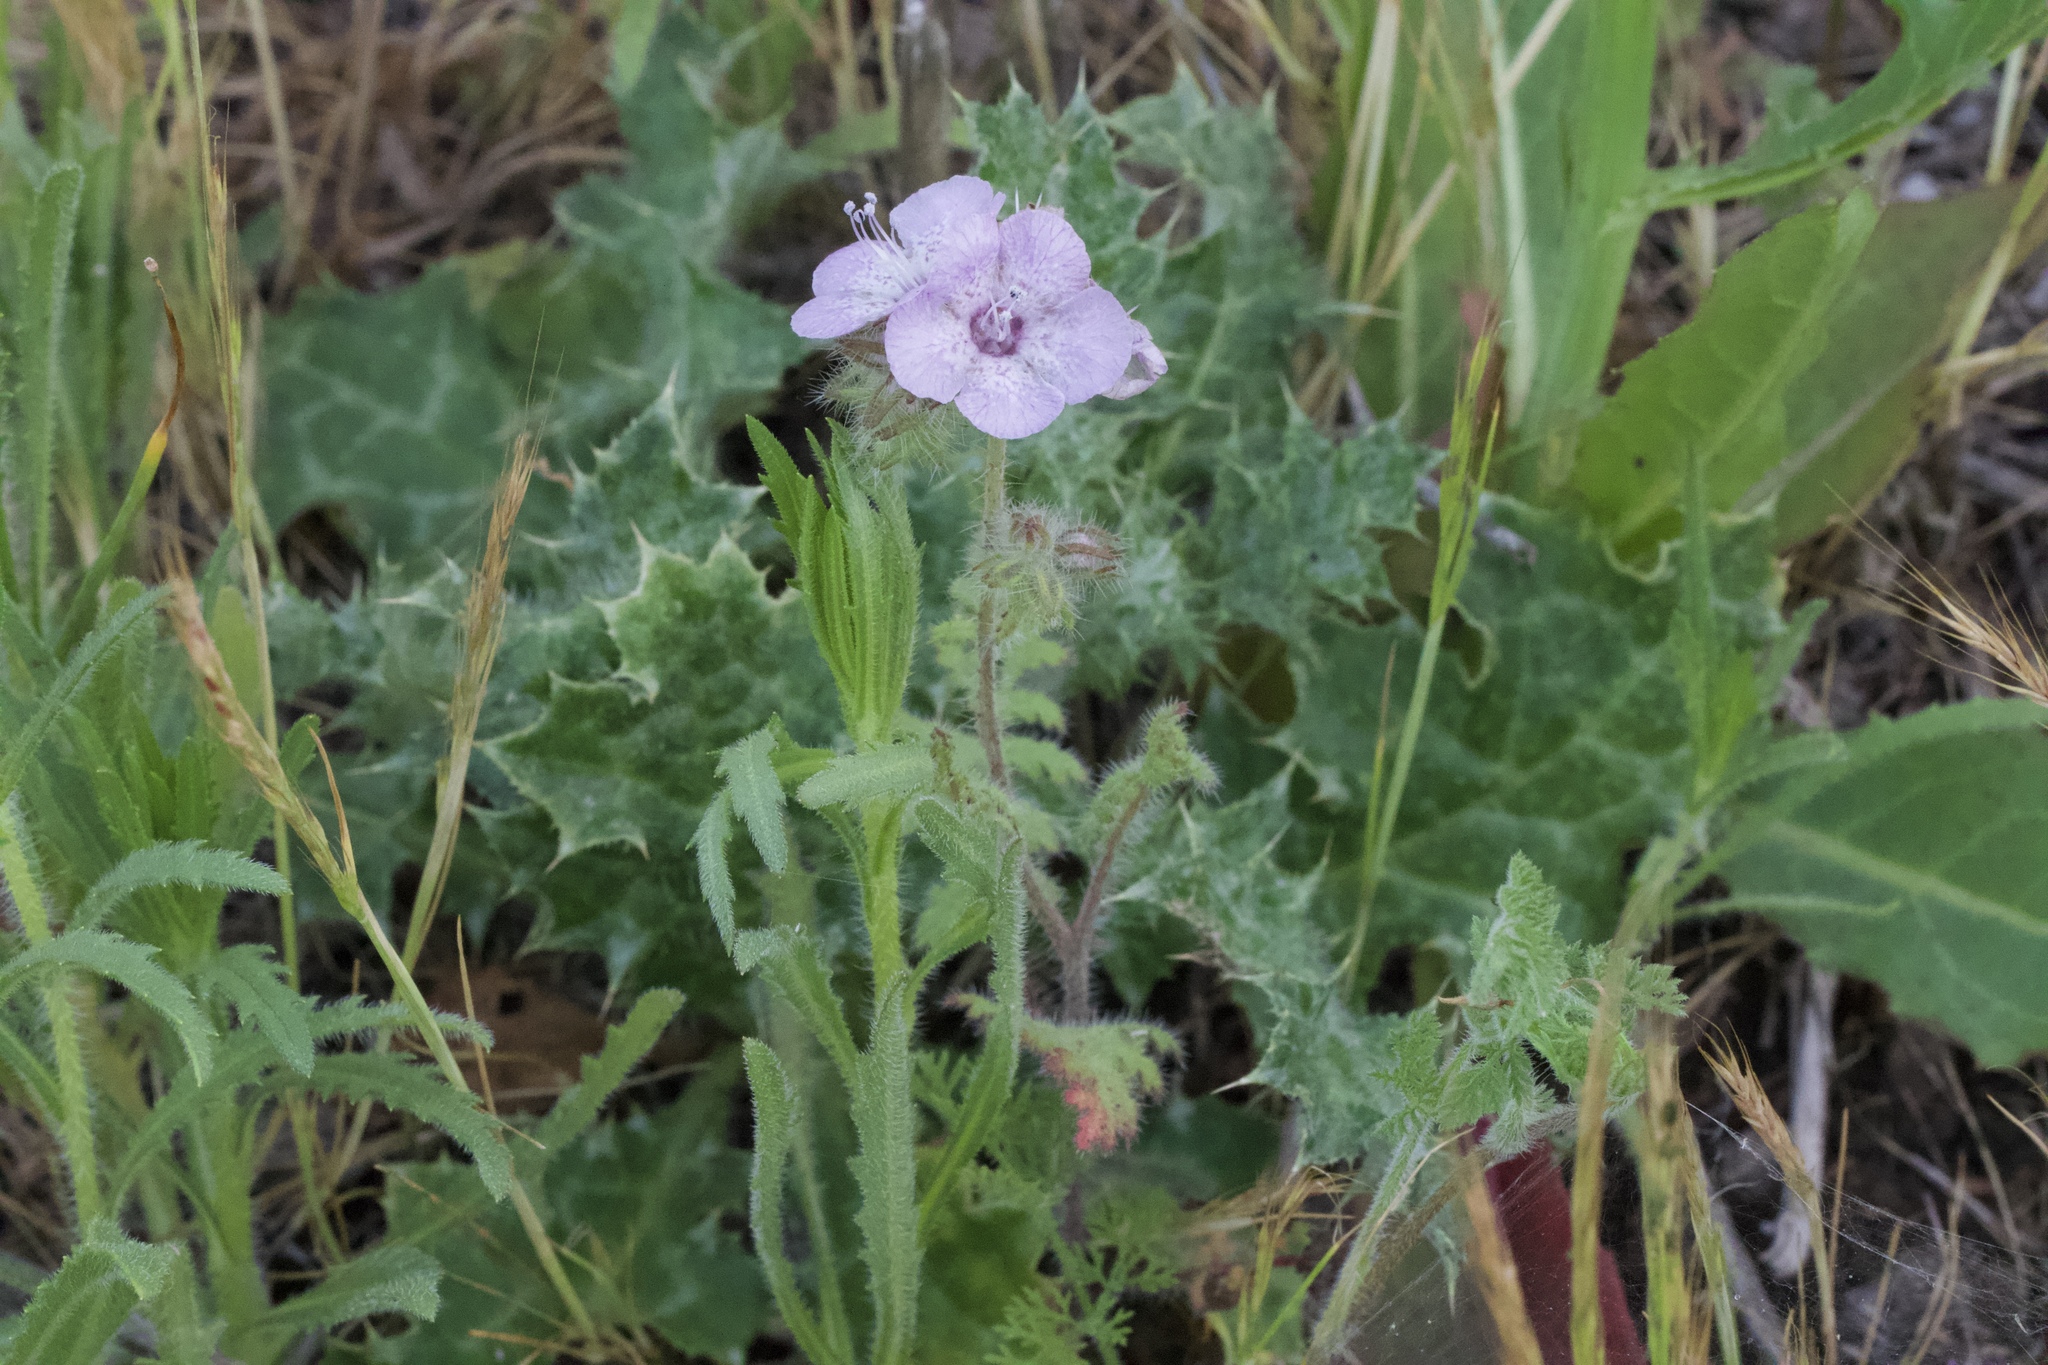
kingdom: Plantae
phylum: Tracheophyta
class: Magnoliopsida
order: Boraginales
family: Hydrophyllaceae
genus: Phacelia
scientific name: Phacelia distans
